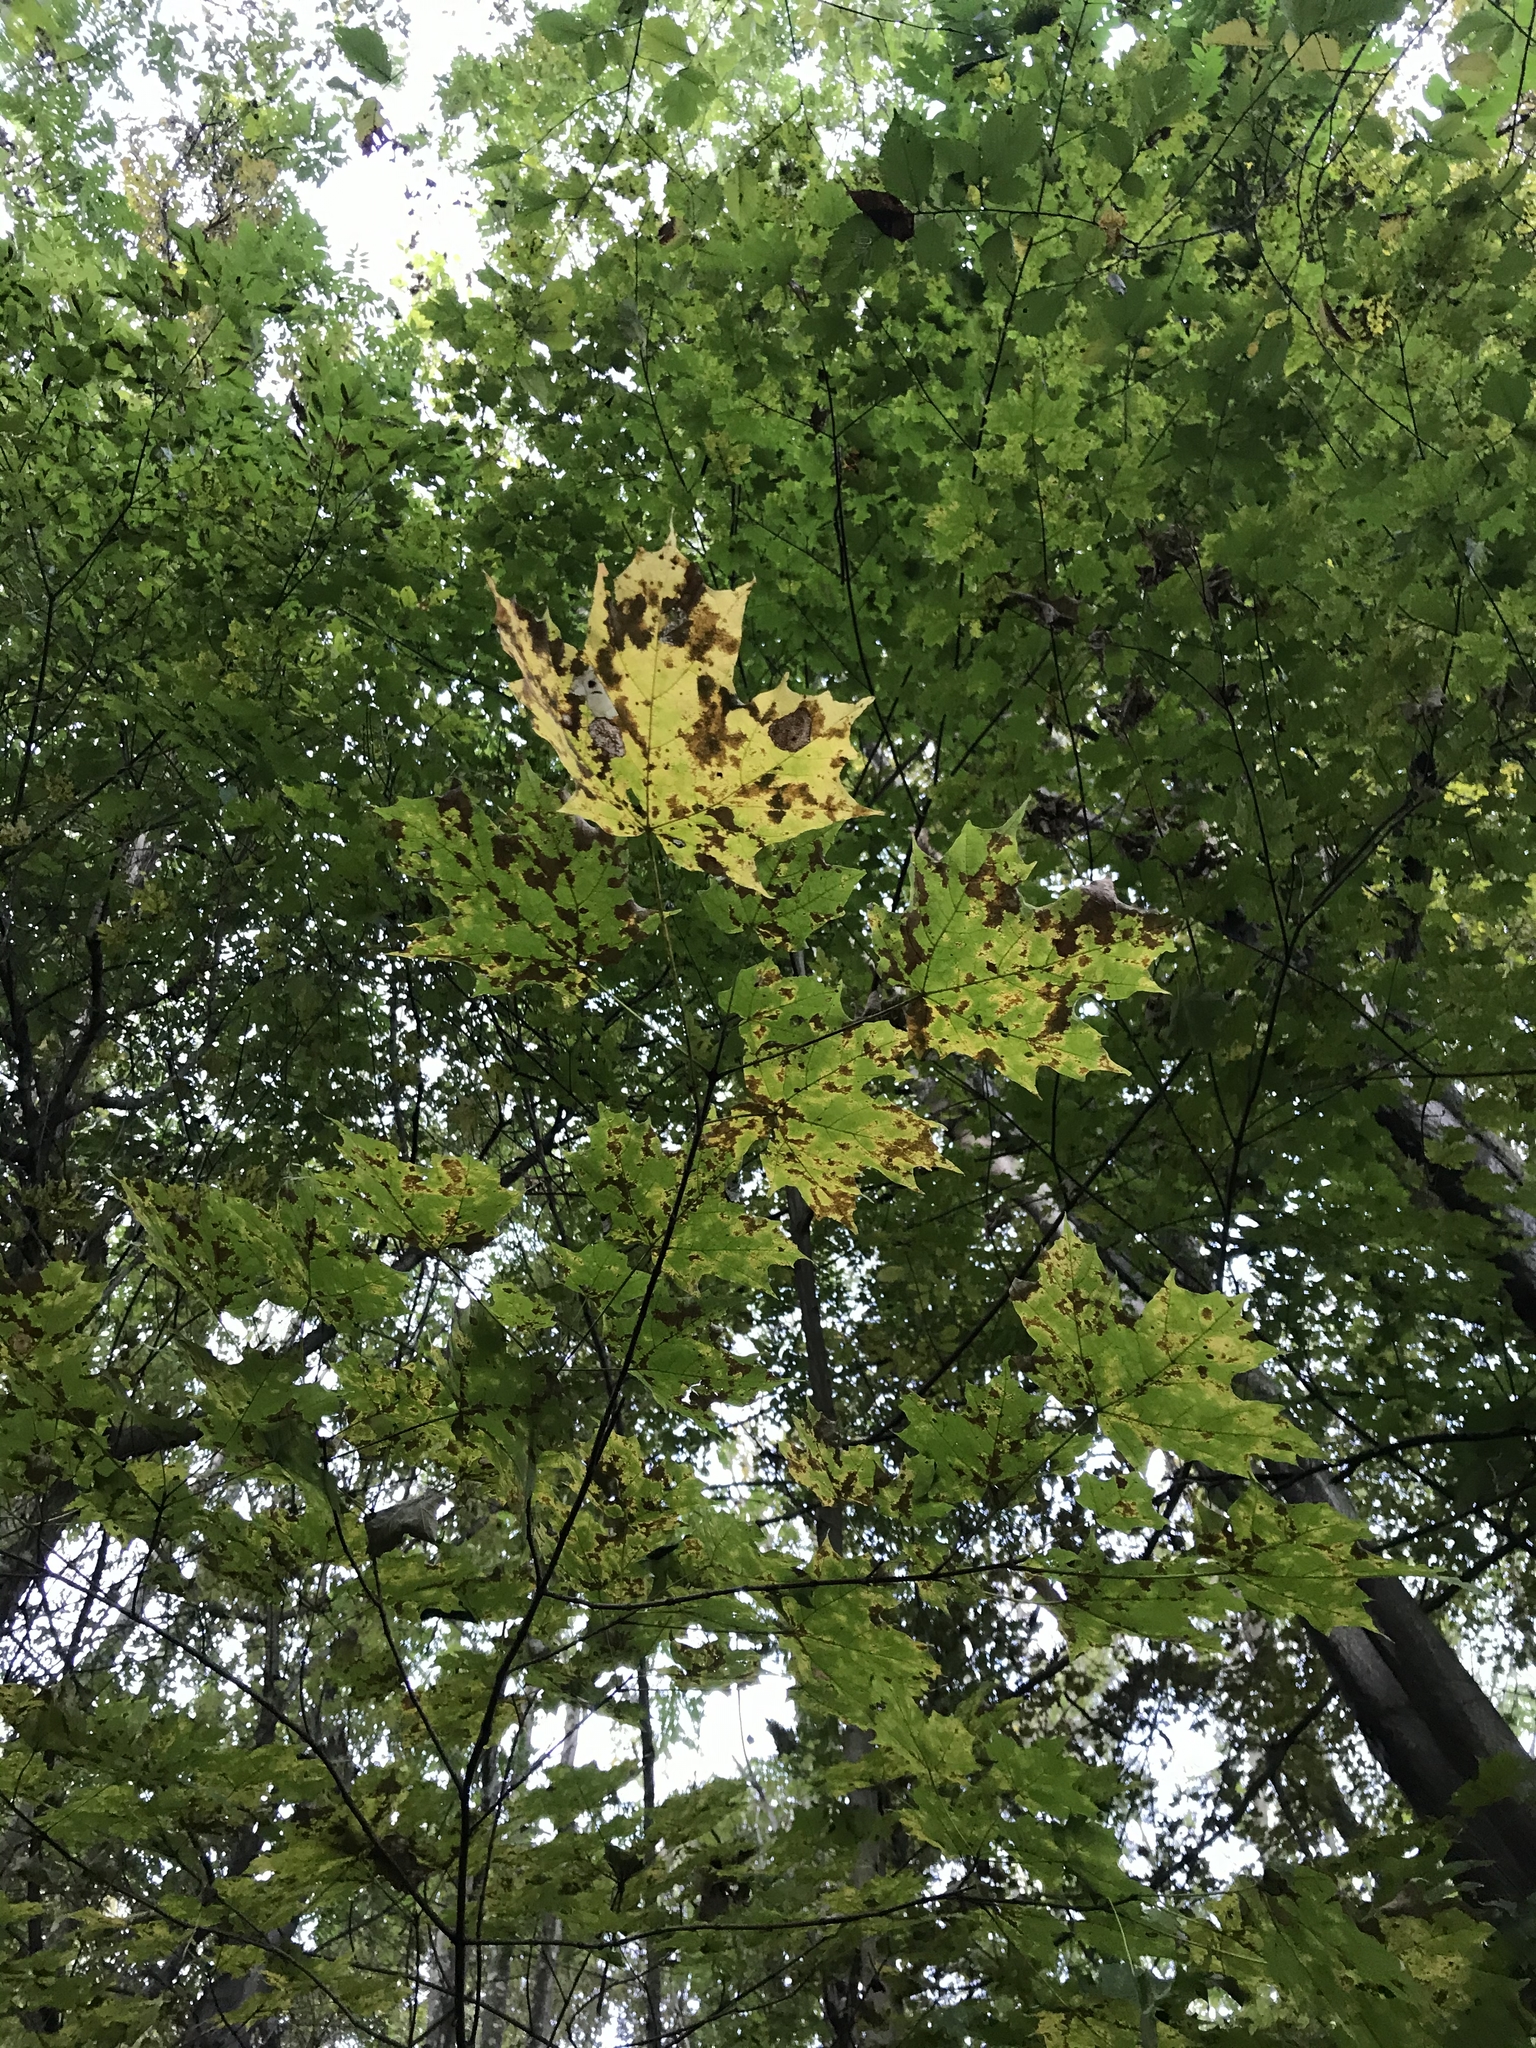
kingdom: Plantae
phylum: Tracheophyta
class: Magnoliopsida
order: Sapindales
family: Sapindaceae
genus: Acer
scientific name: Acer saccharum
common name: Sugar maple
